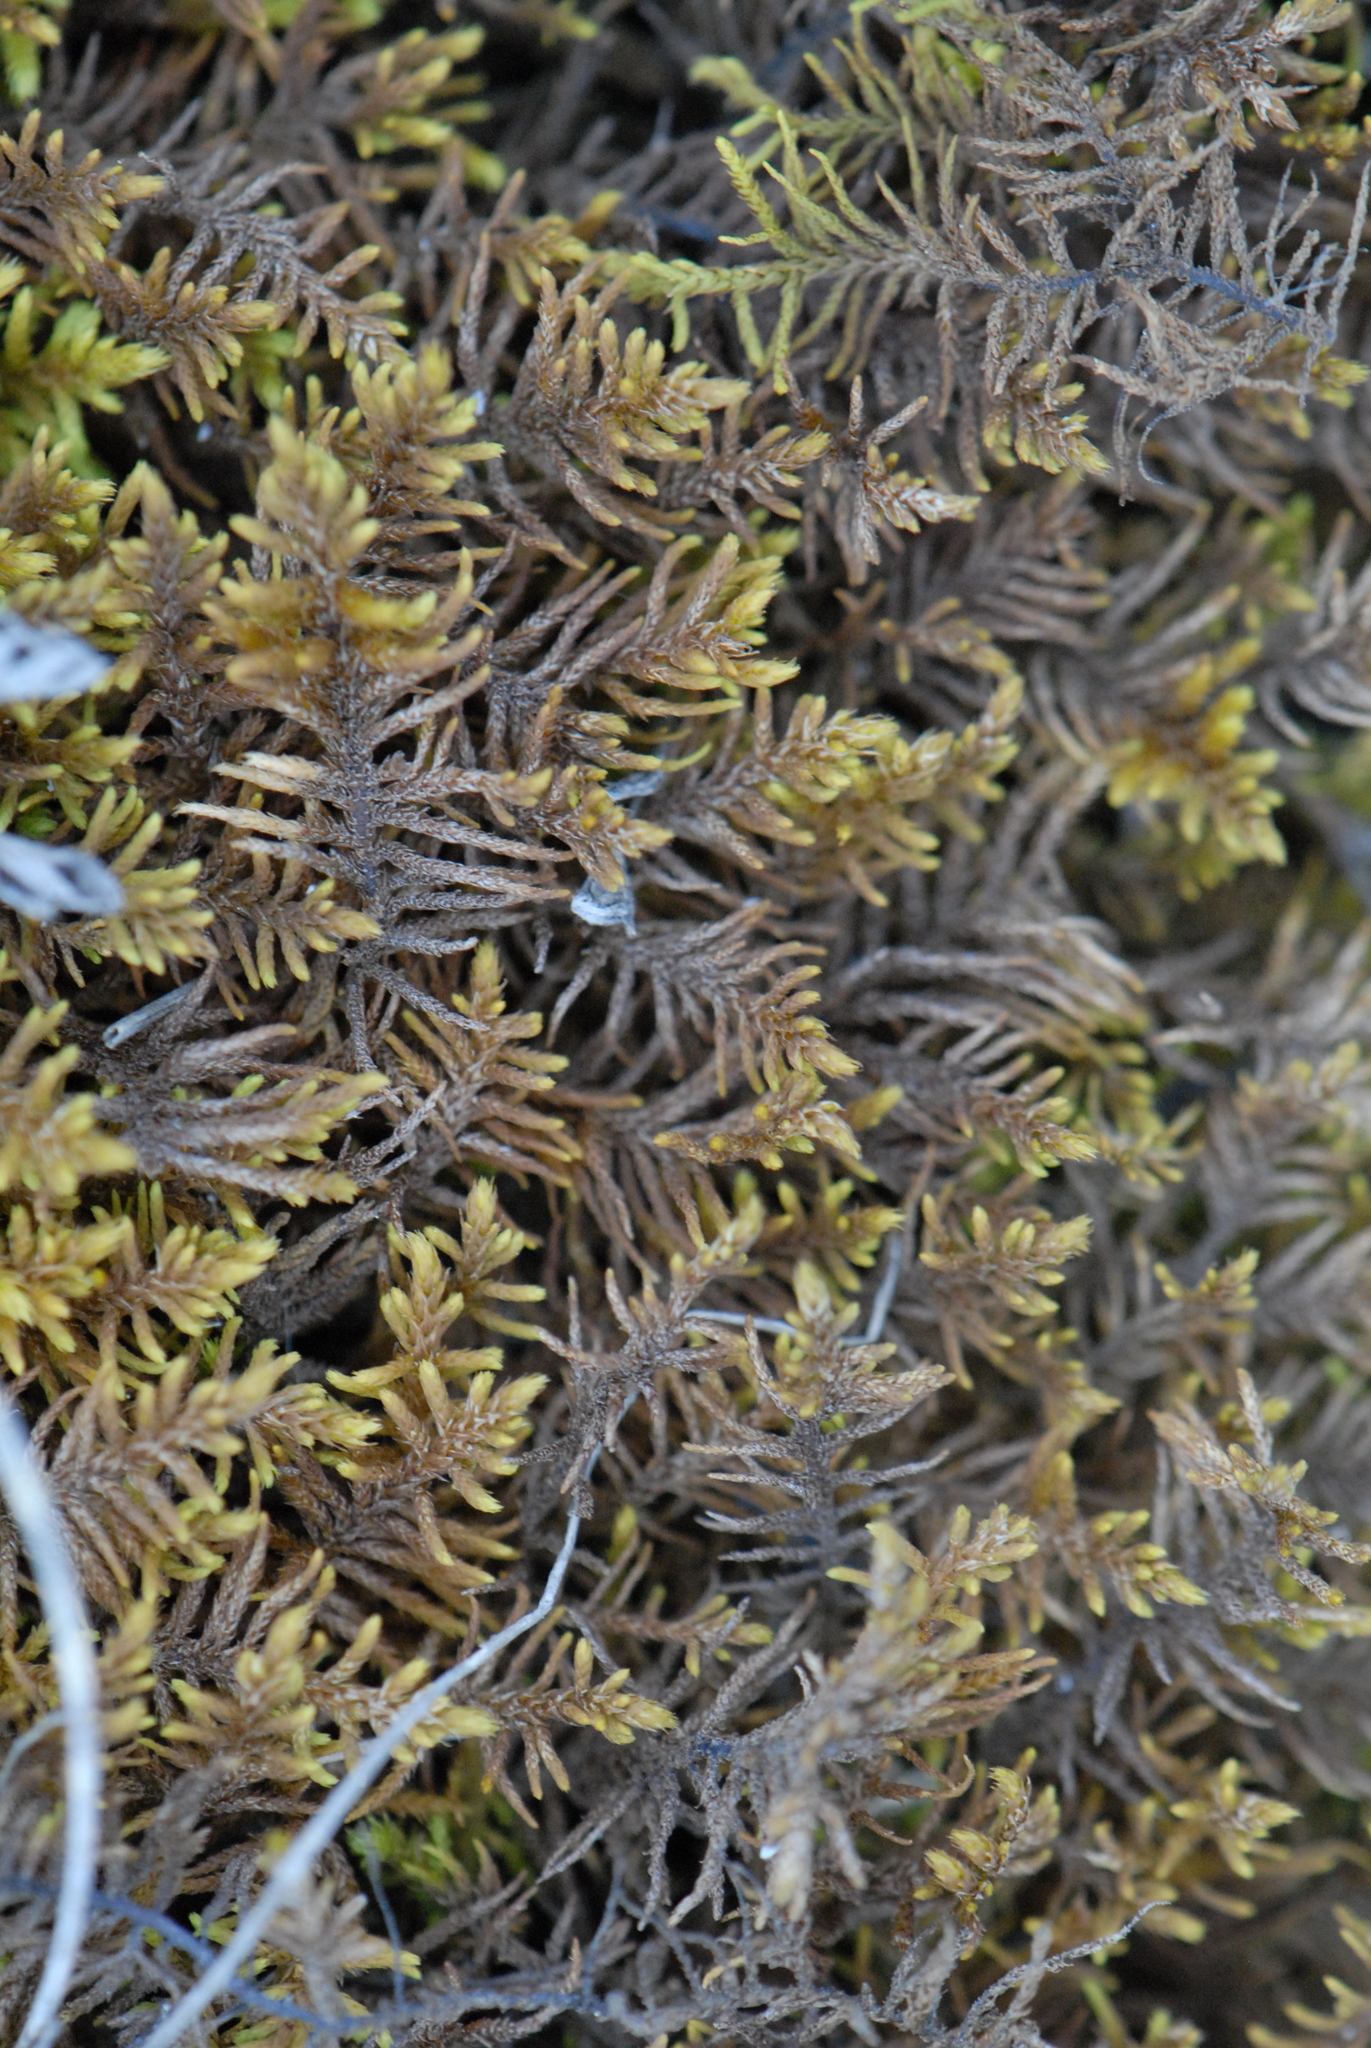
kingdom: Plantae
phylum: Bryophyta
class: Bryopsida
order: Hypnales
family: Thuidiaceae
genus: Abietinella
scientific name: Abietinella abietina
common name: Wiry fern moss
